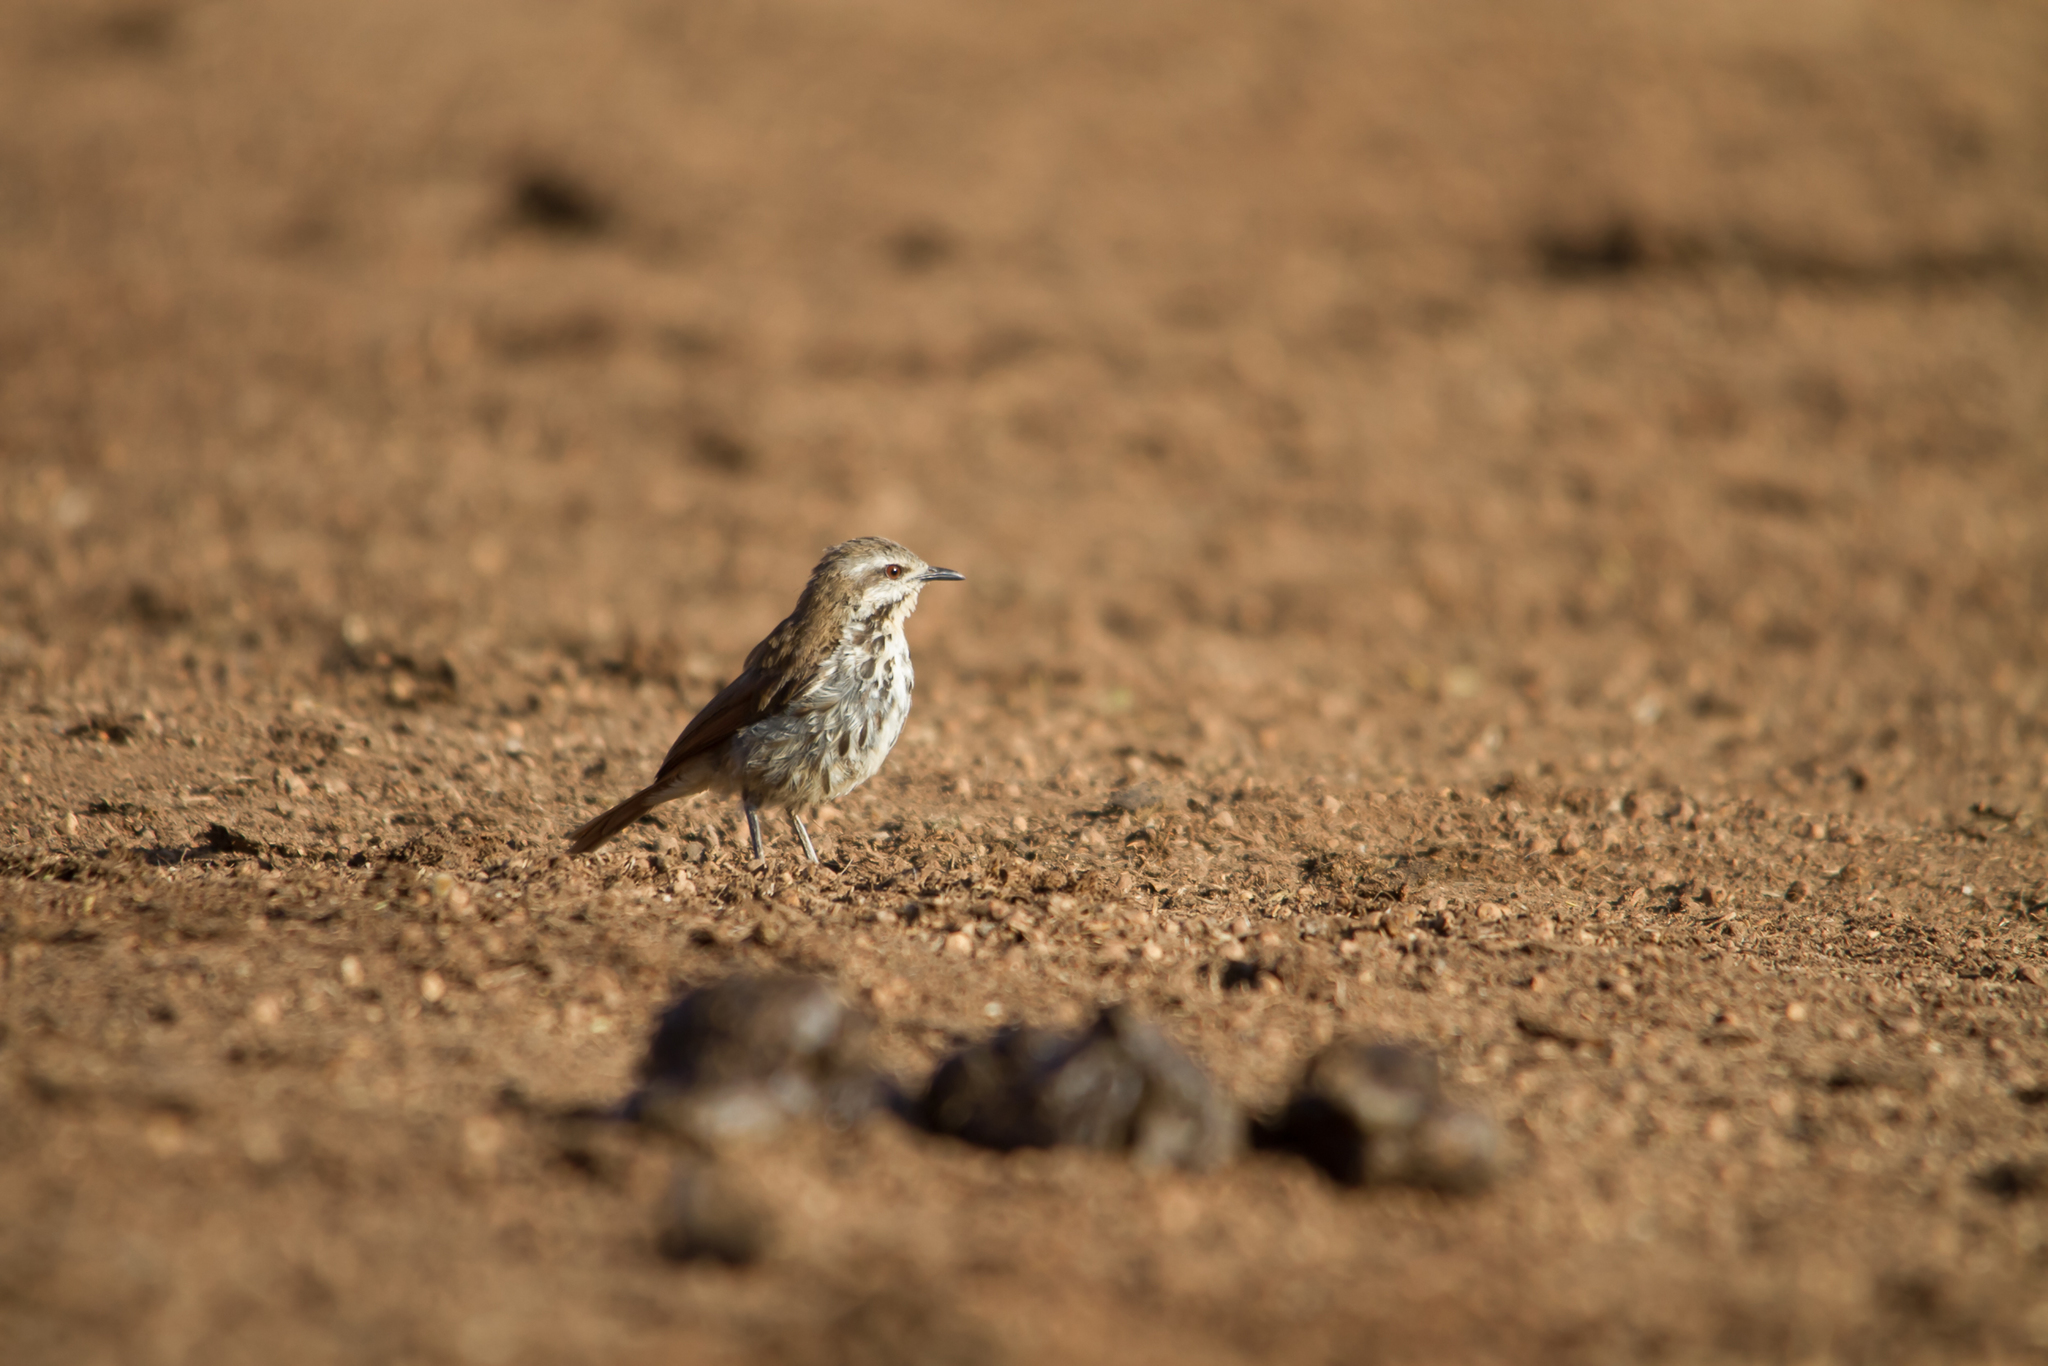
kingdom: Animalia
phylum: Chordata
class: Aves
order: Passeriformes
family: Muscicapidae
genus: Cichladusa
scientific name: Cichladusa guttata
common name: Spotted palm thrush
